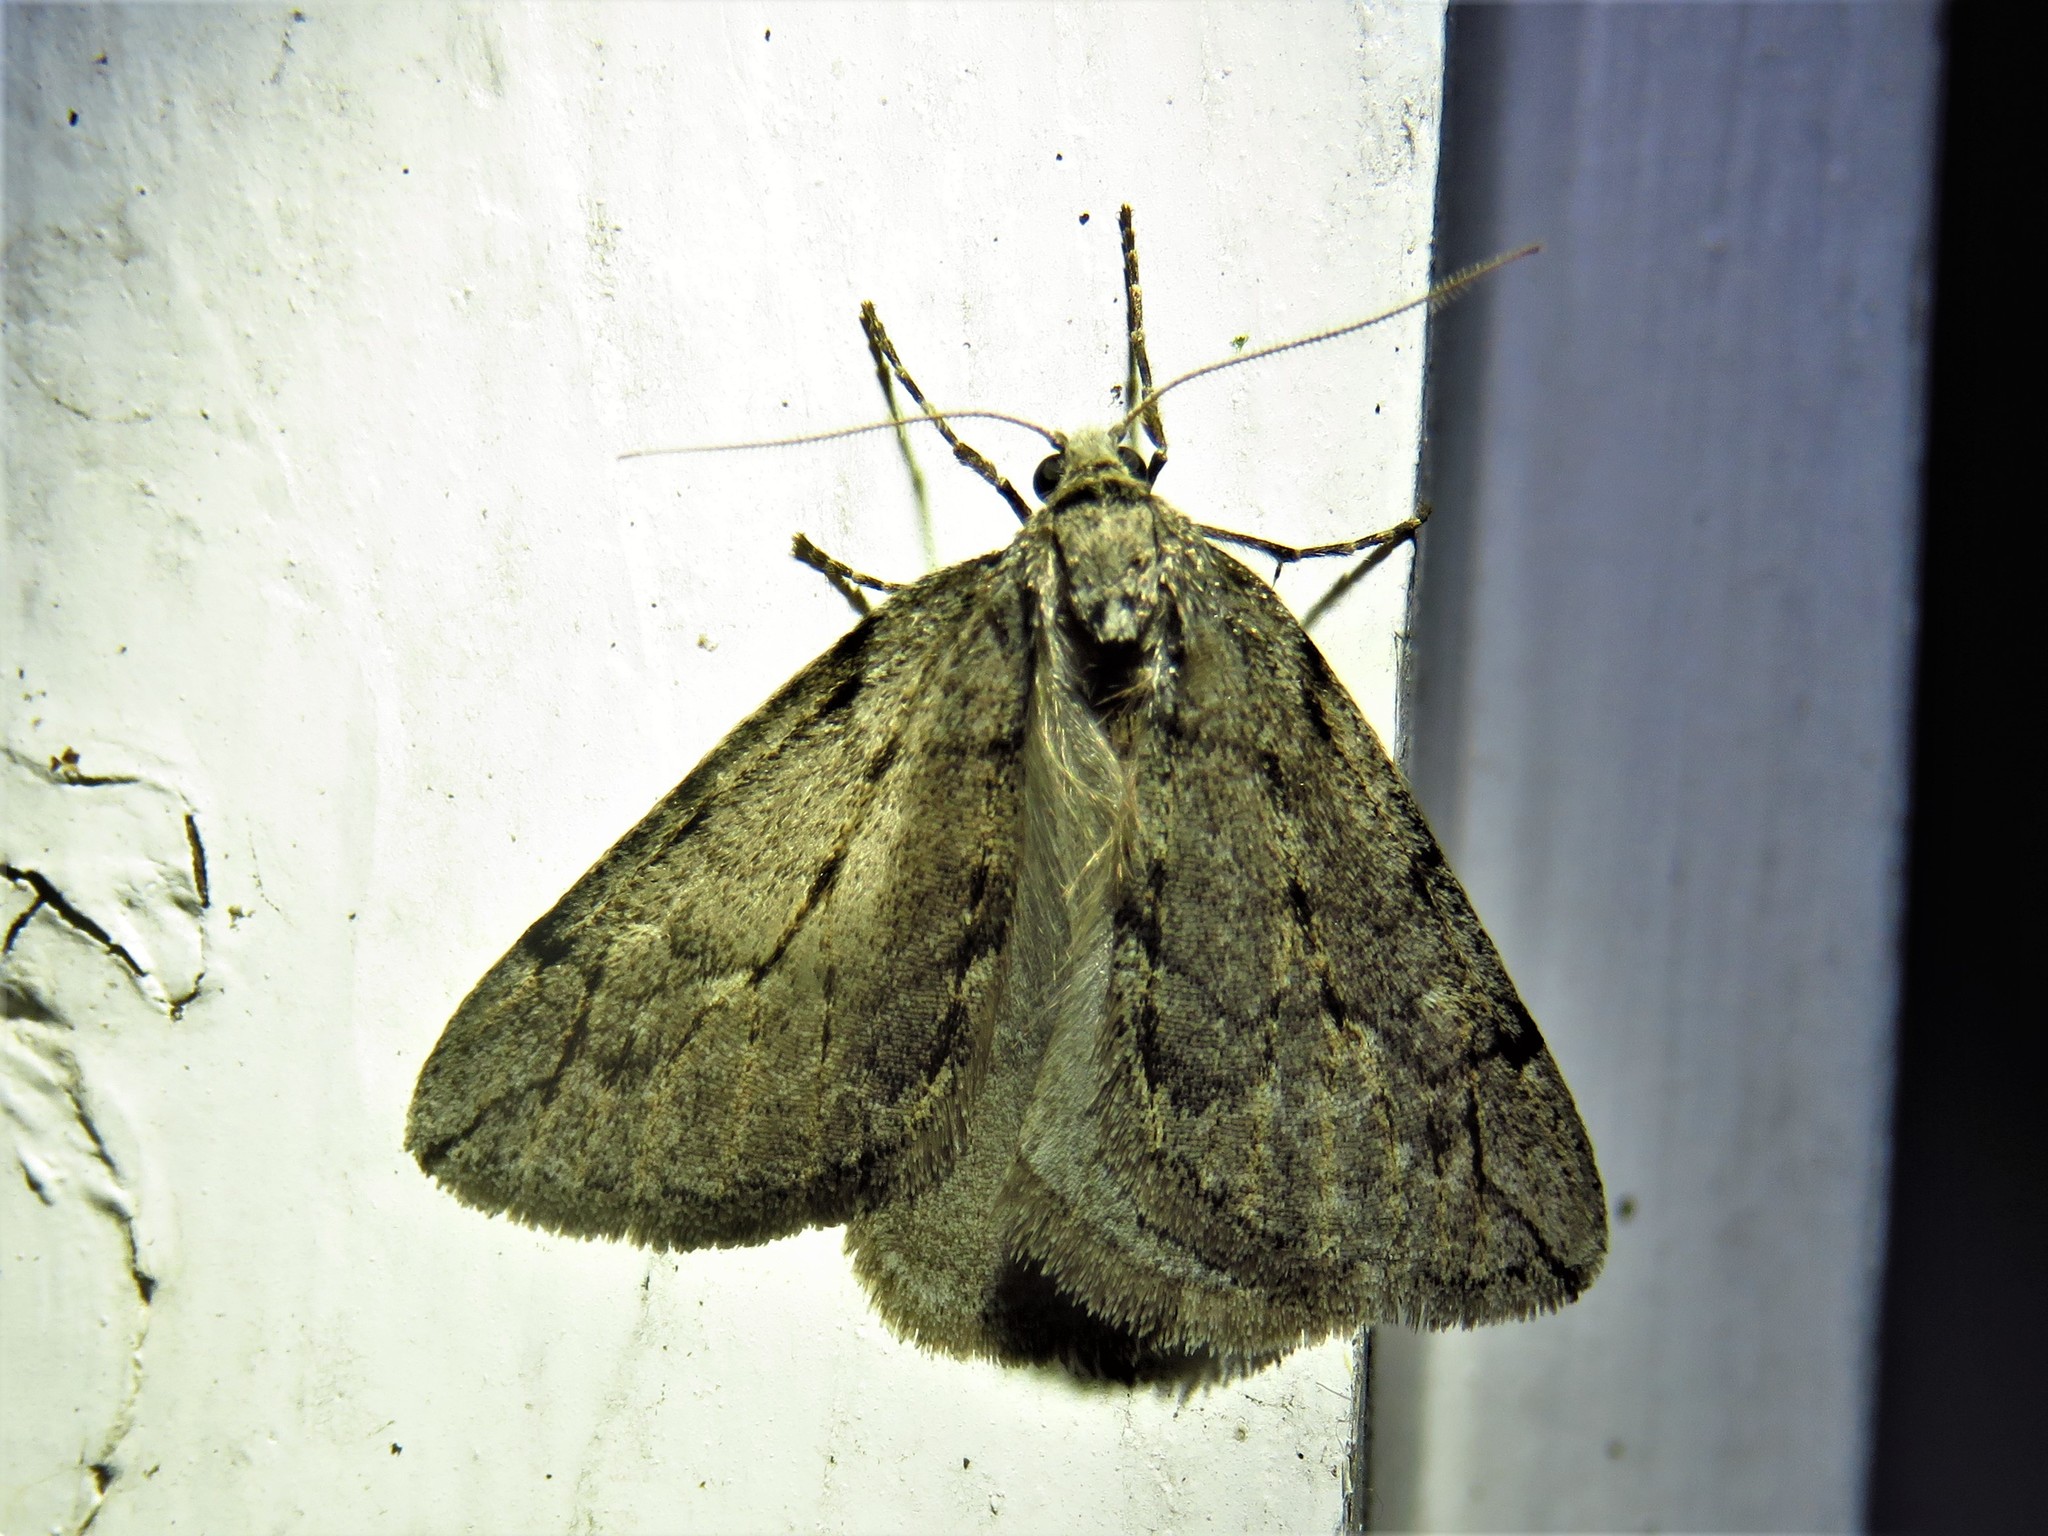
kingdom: Animalia
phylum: Arthropoda
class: Insecta
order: Lepidoptera
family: Geometridae
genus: Paleacrita
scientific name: Paleacrita vernata
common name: Spring cankerworm
